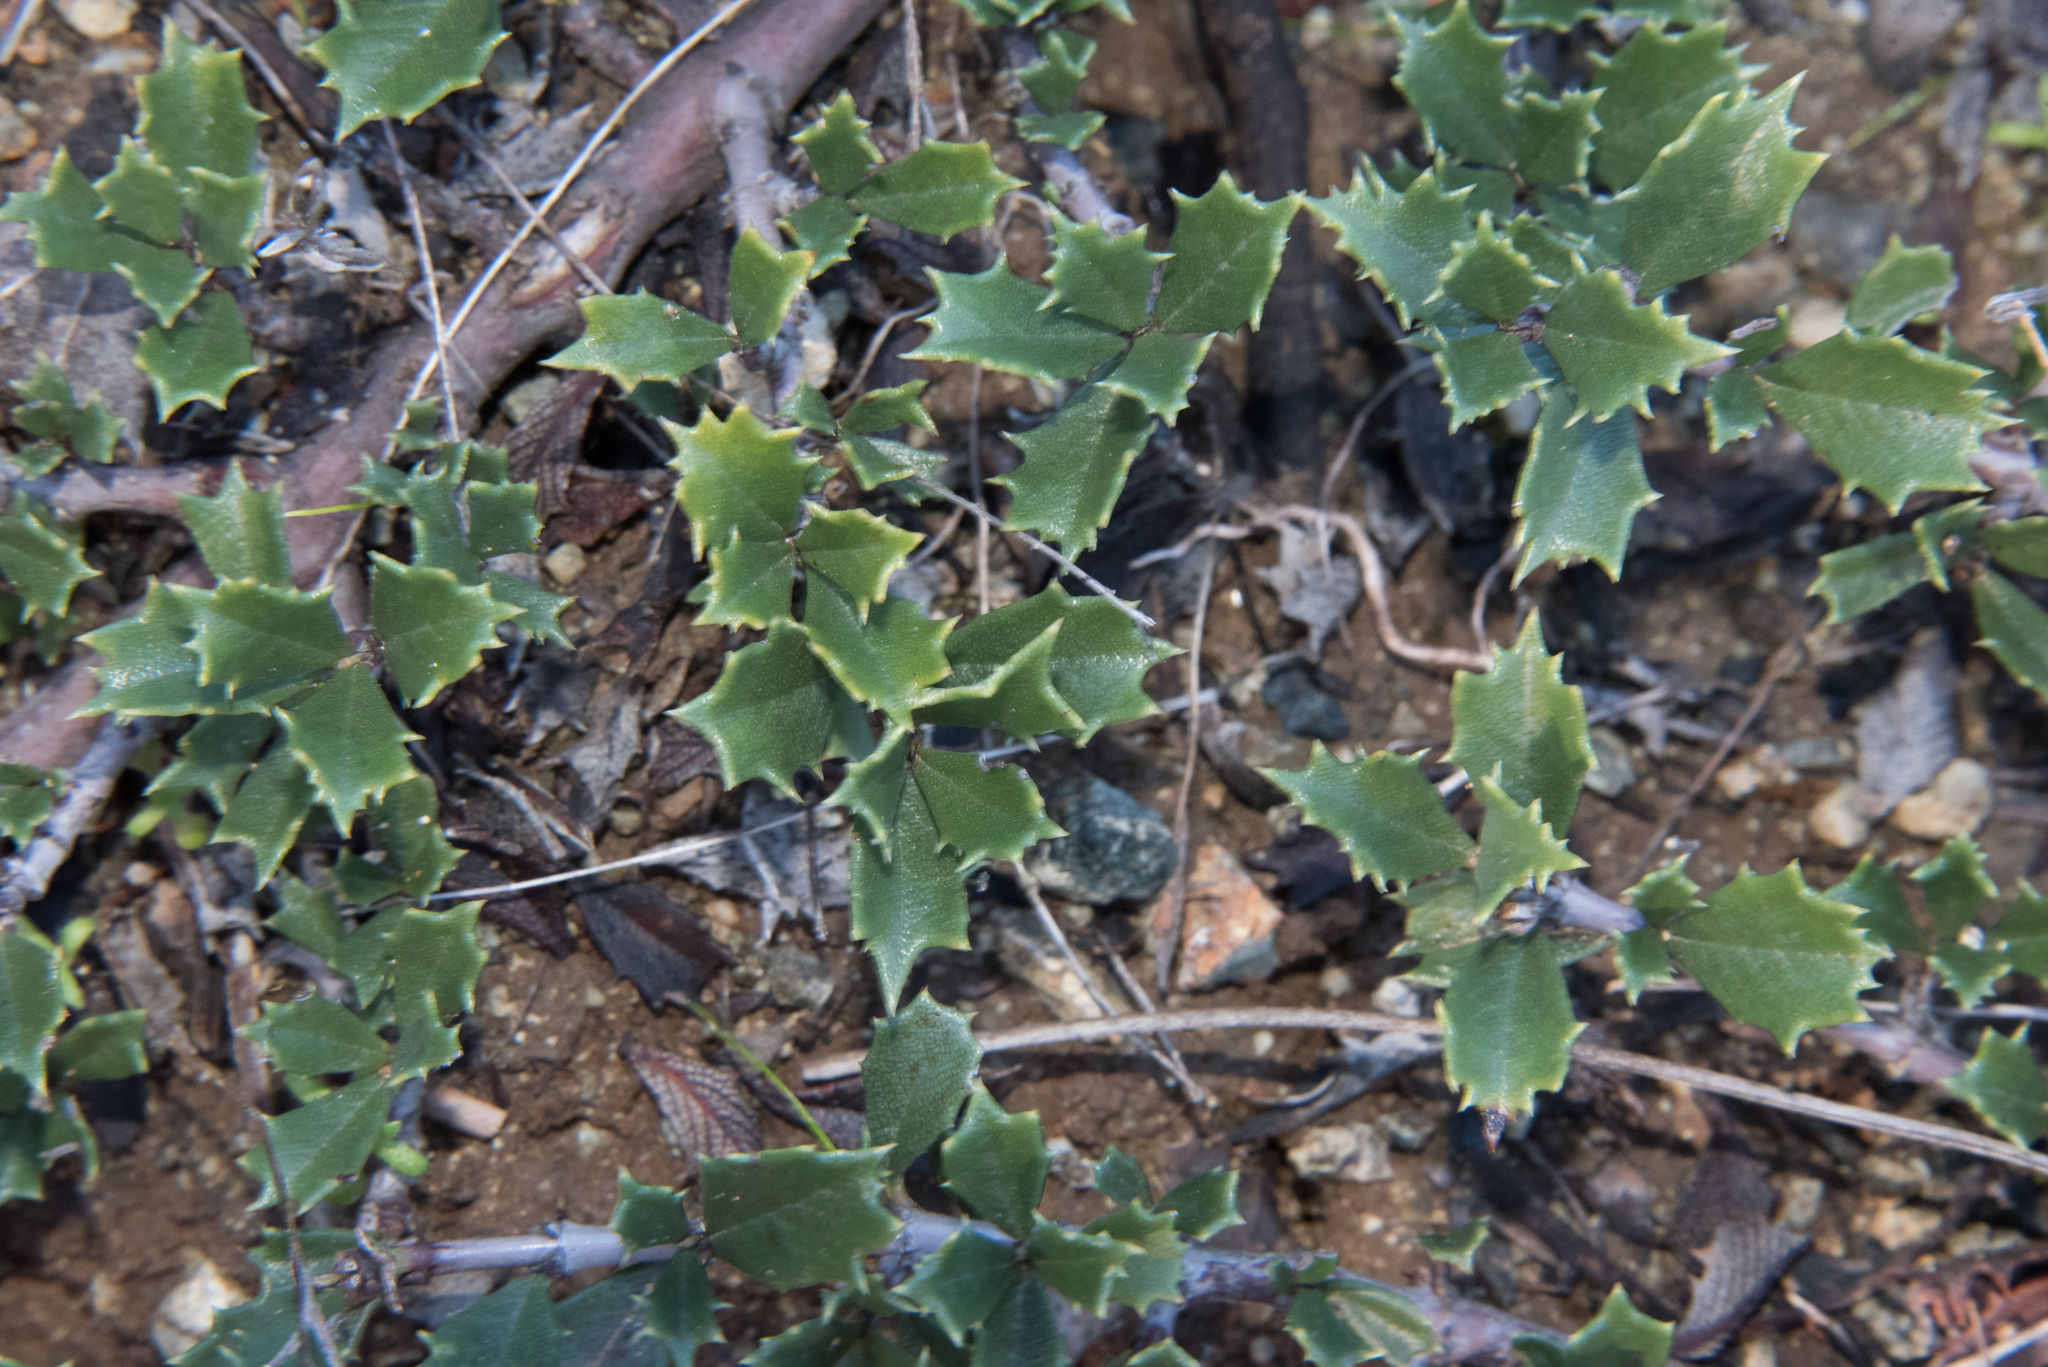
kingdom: Plantae
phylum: Tracheophyta
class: Magnoliopsida
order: Rosales
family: Rhamnaceae
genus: Ceanothus
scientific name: Ceanothus jepsonii
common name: Muskbrush
